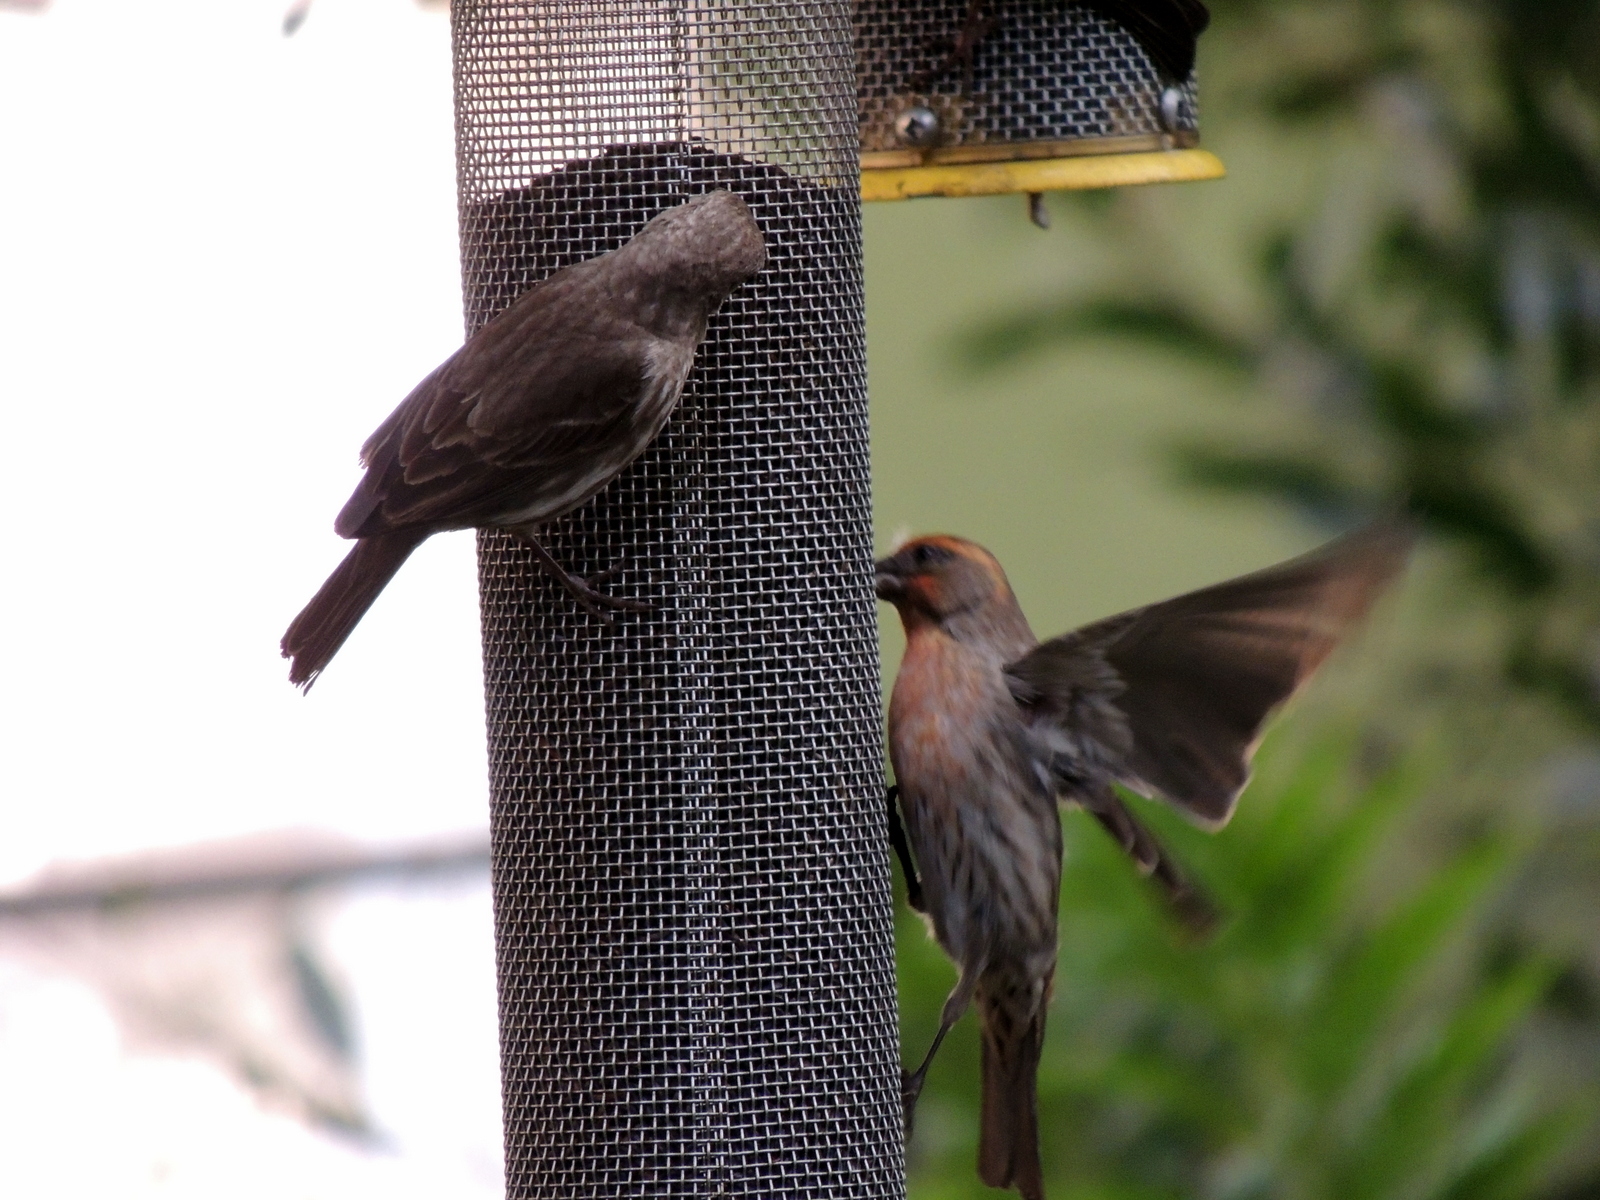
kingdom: Animalia
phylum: Chordata
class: Aves
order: Passeriformes
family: Fringillidae
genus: Haemorhous
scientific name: Haemorhous mexicanus
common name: House finch
